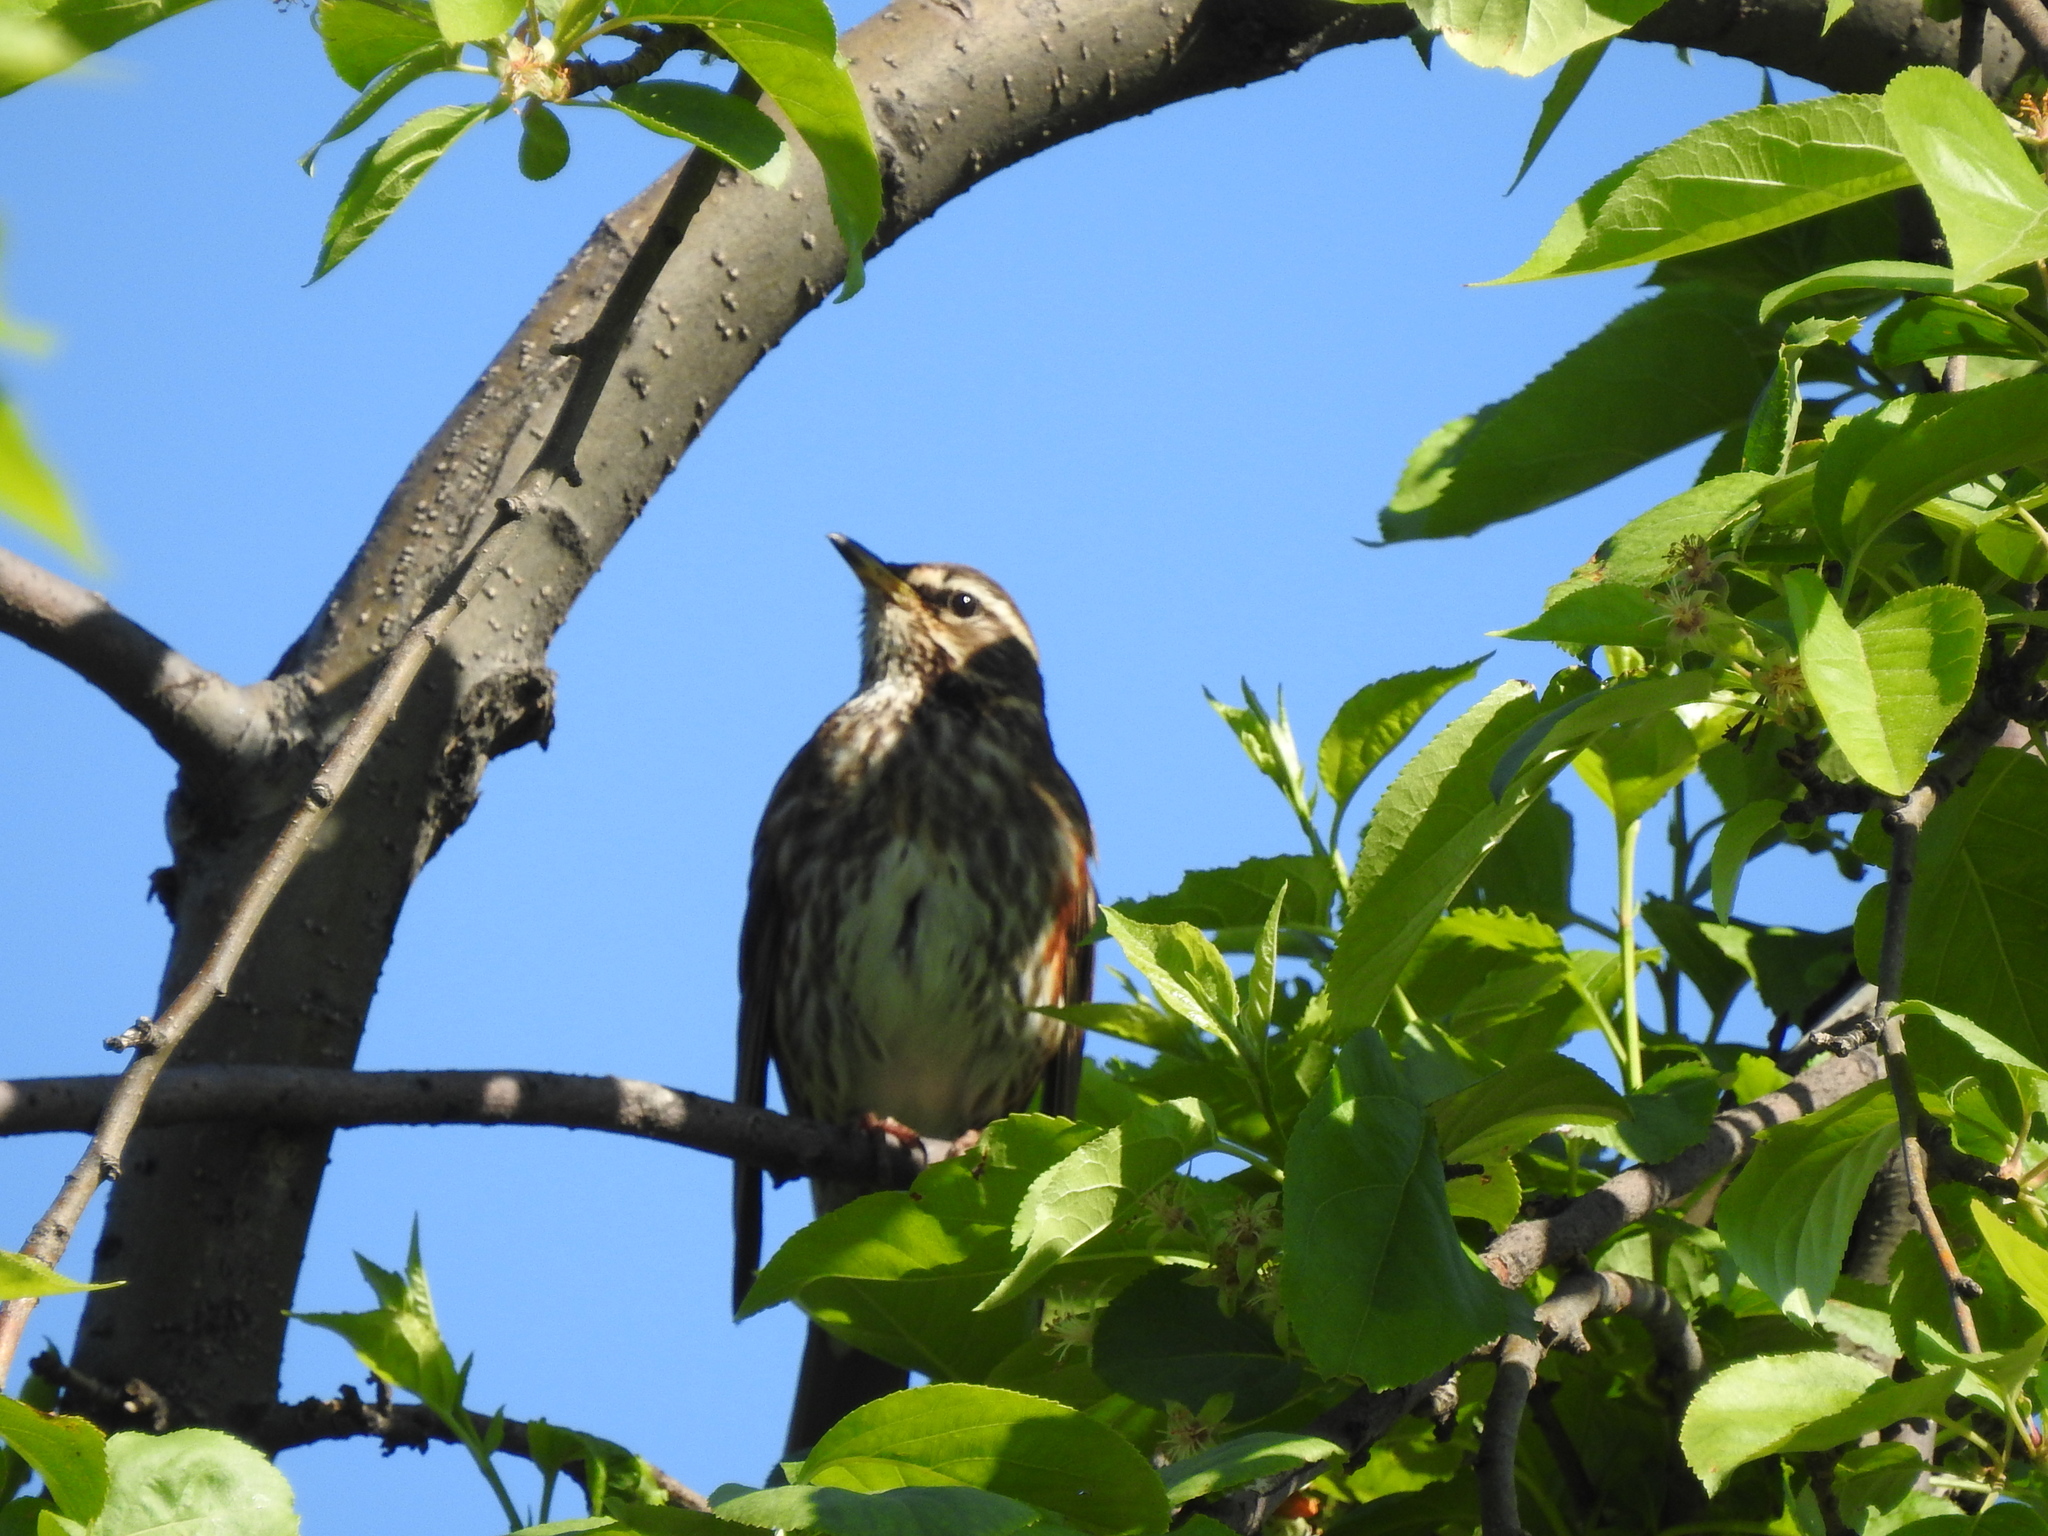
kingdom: Animalia
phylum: Chordata
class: Aves
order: Passeriformes
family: Turdidae
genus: Turdus
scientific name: Turdus iliacus
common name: Redwing
